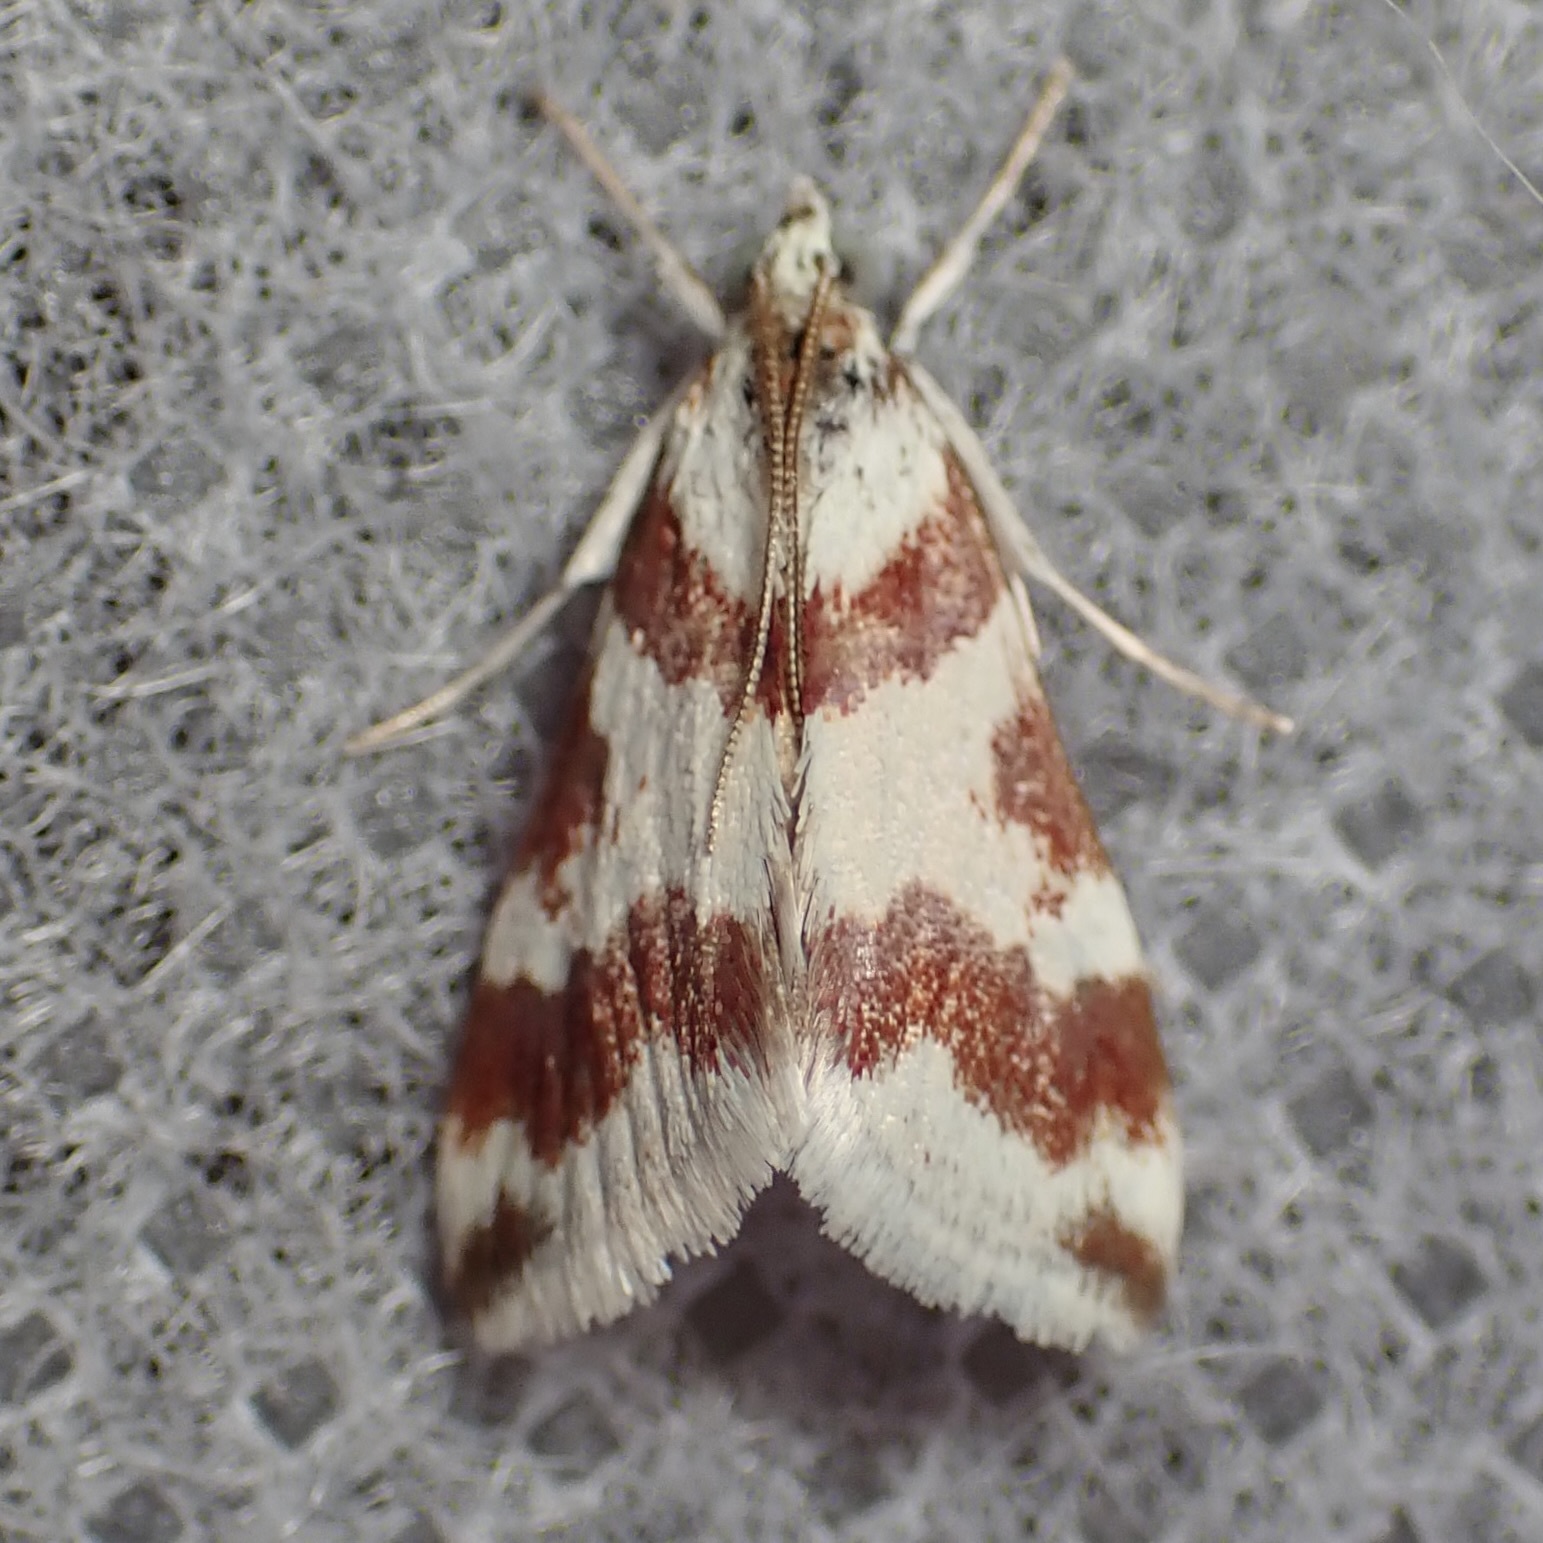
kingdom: Animalia
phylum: Arthropoda
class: Insecta
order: Lepidoptera
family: Crambidae
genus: Noctuelia
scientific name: Noctuelia Mimoschinia rufofascialis
